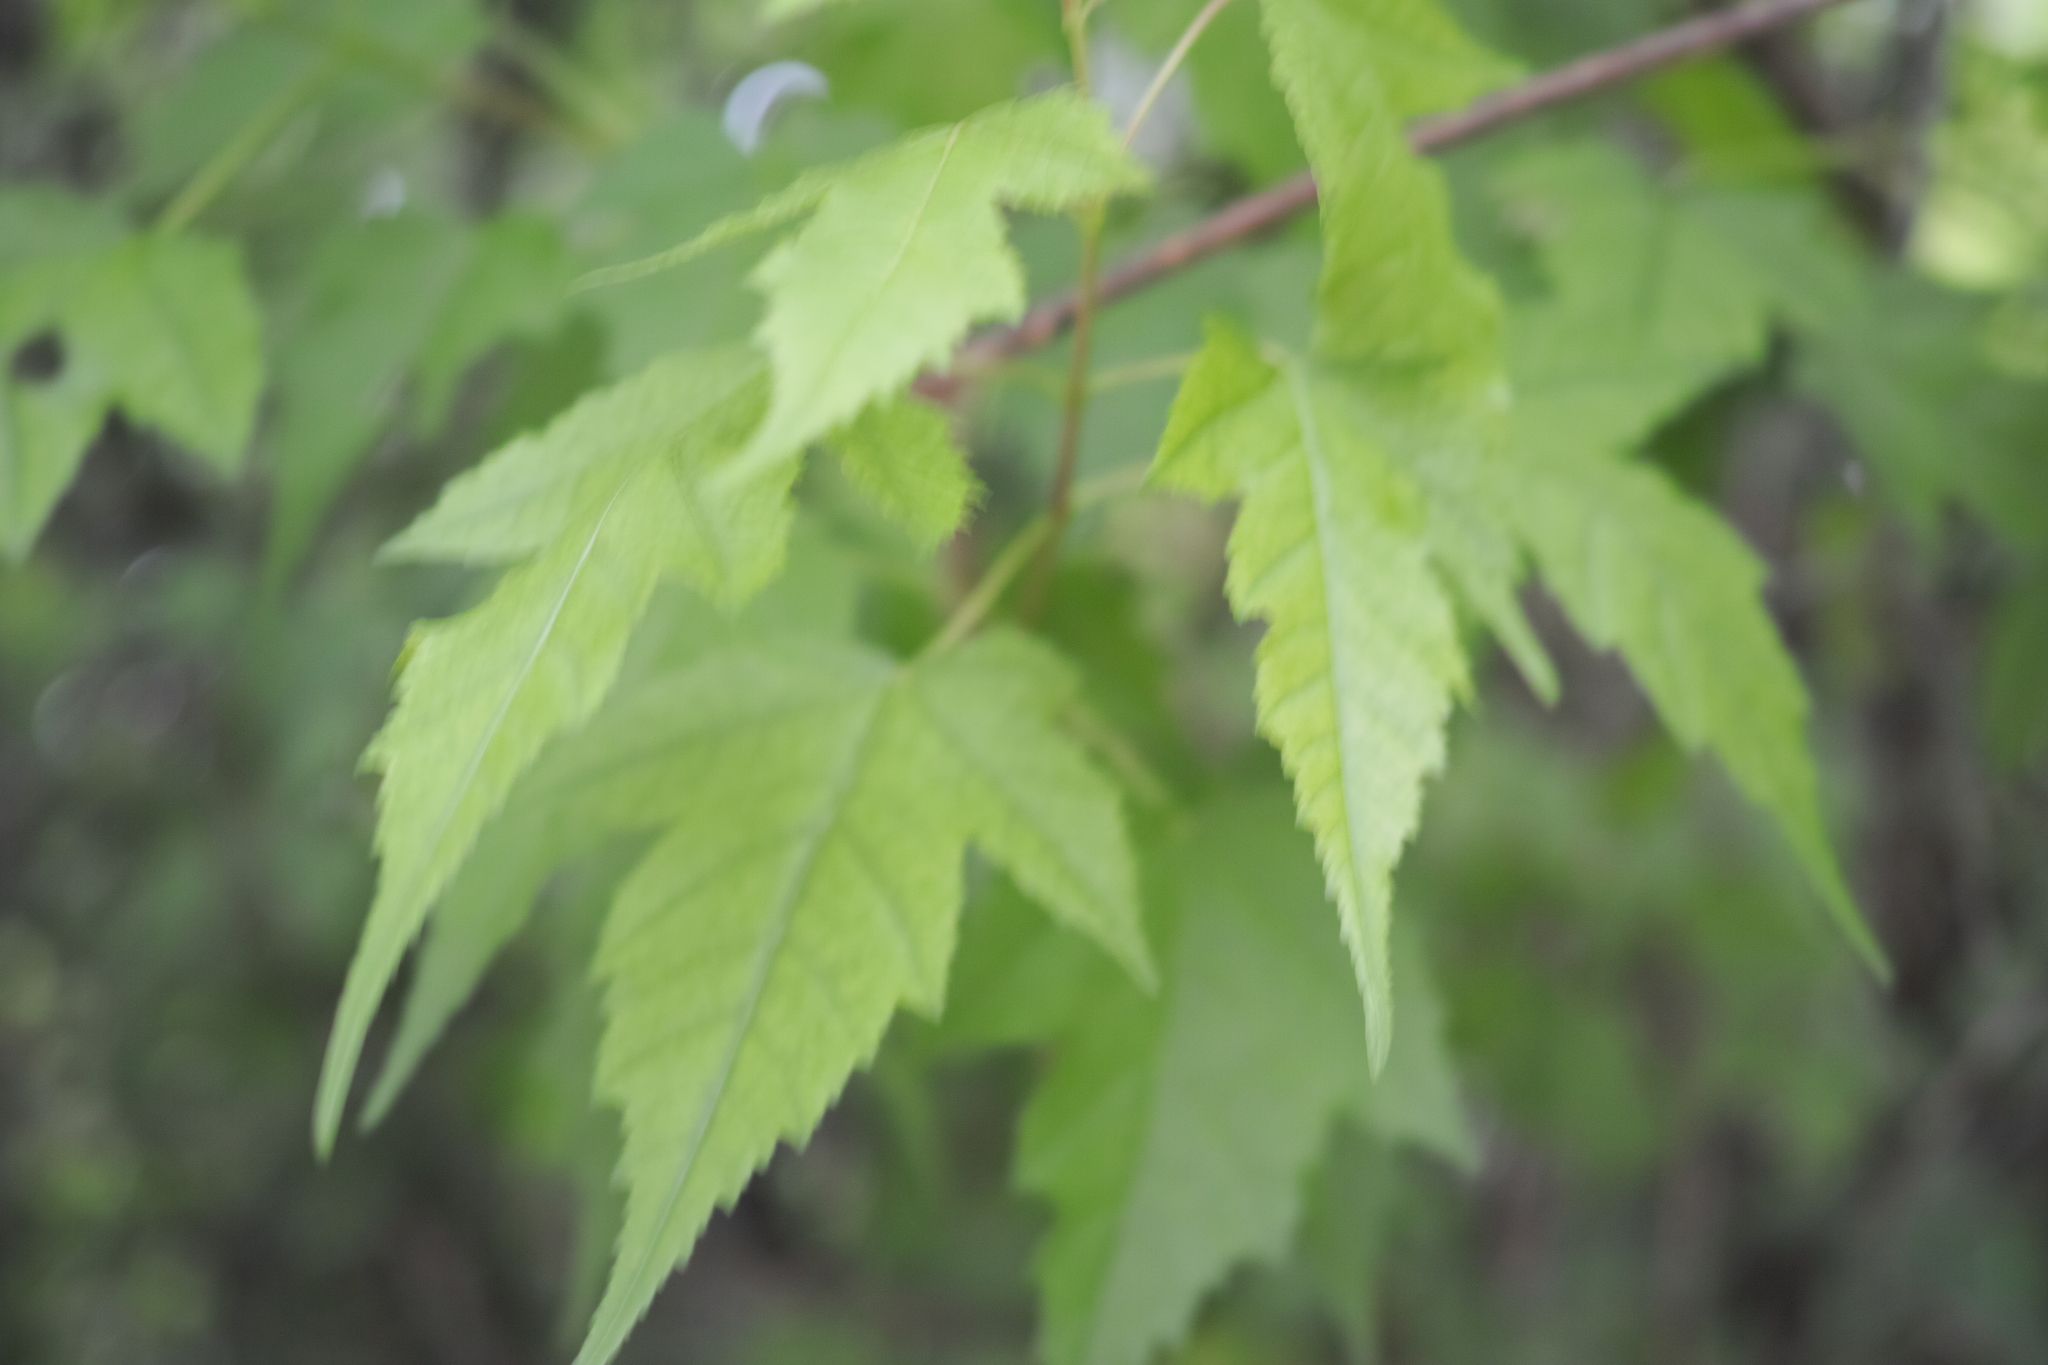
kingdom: Plantae
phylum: Tracheophyta
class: Magnoliopsida
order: Sapindales
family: Sapindaceae
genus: Acer
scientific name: Acer tataricum
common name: Tartar maple
